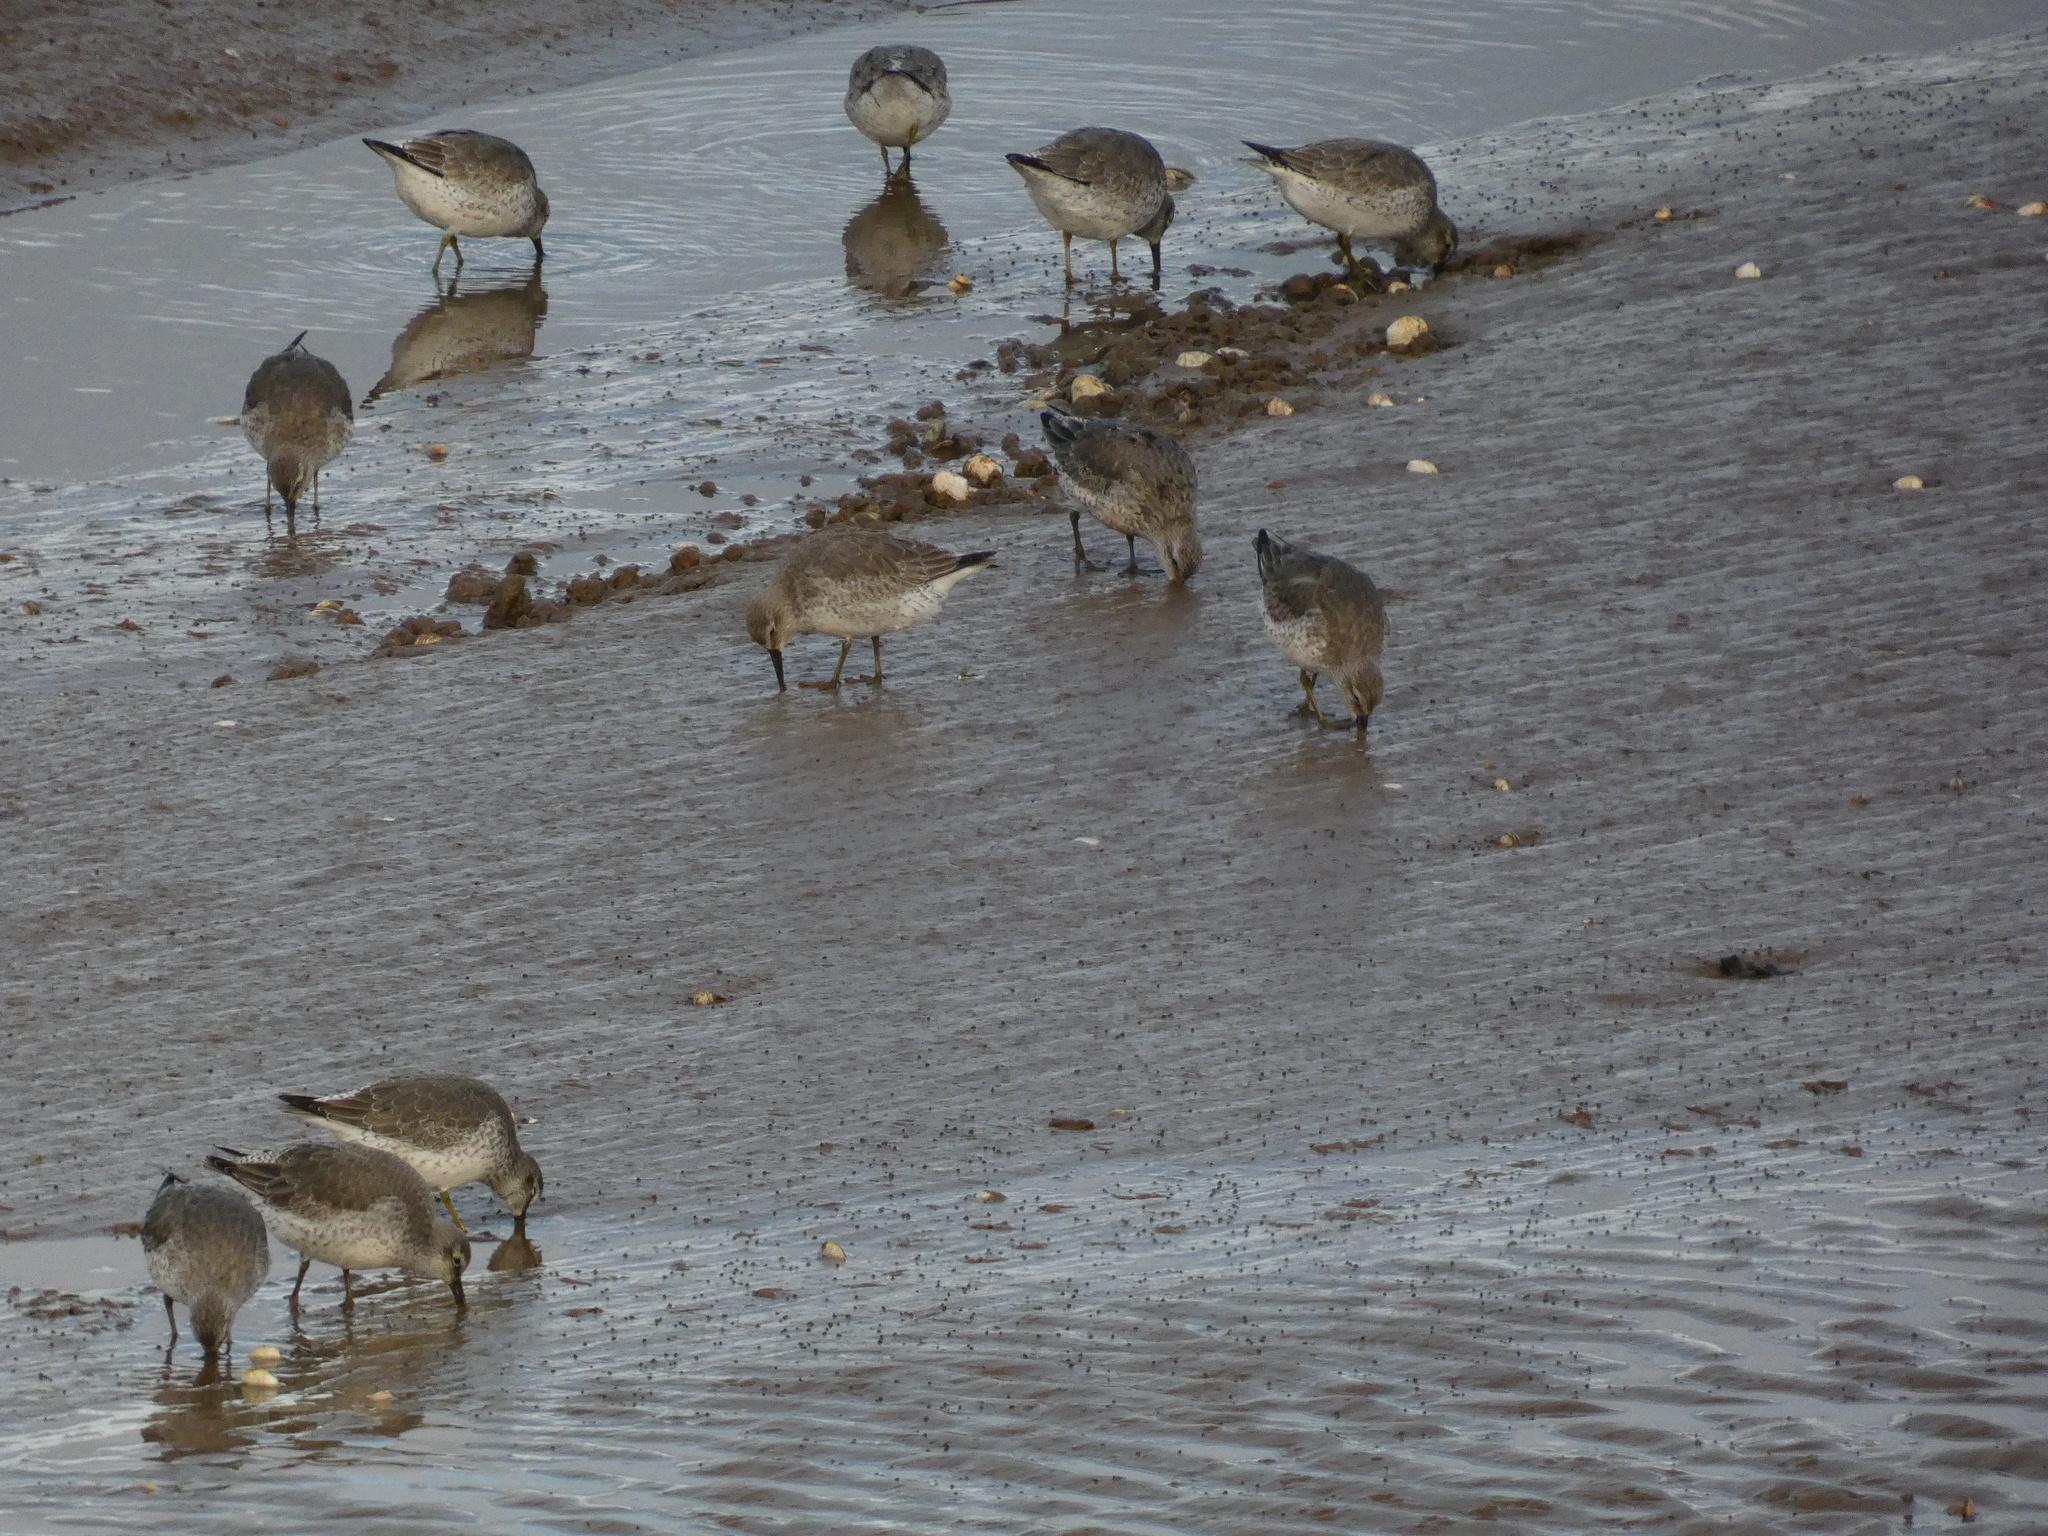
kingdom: Animalia
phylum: Chordata
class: Aves
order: Charadriiformes
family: Scolopacidae
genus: Calidris
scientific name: Calidris canutus
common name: Red knot
